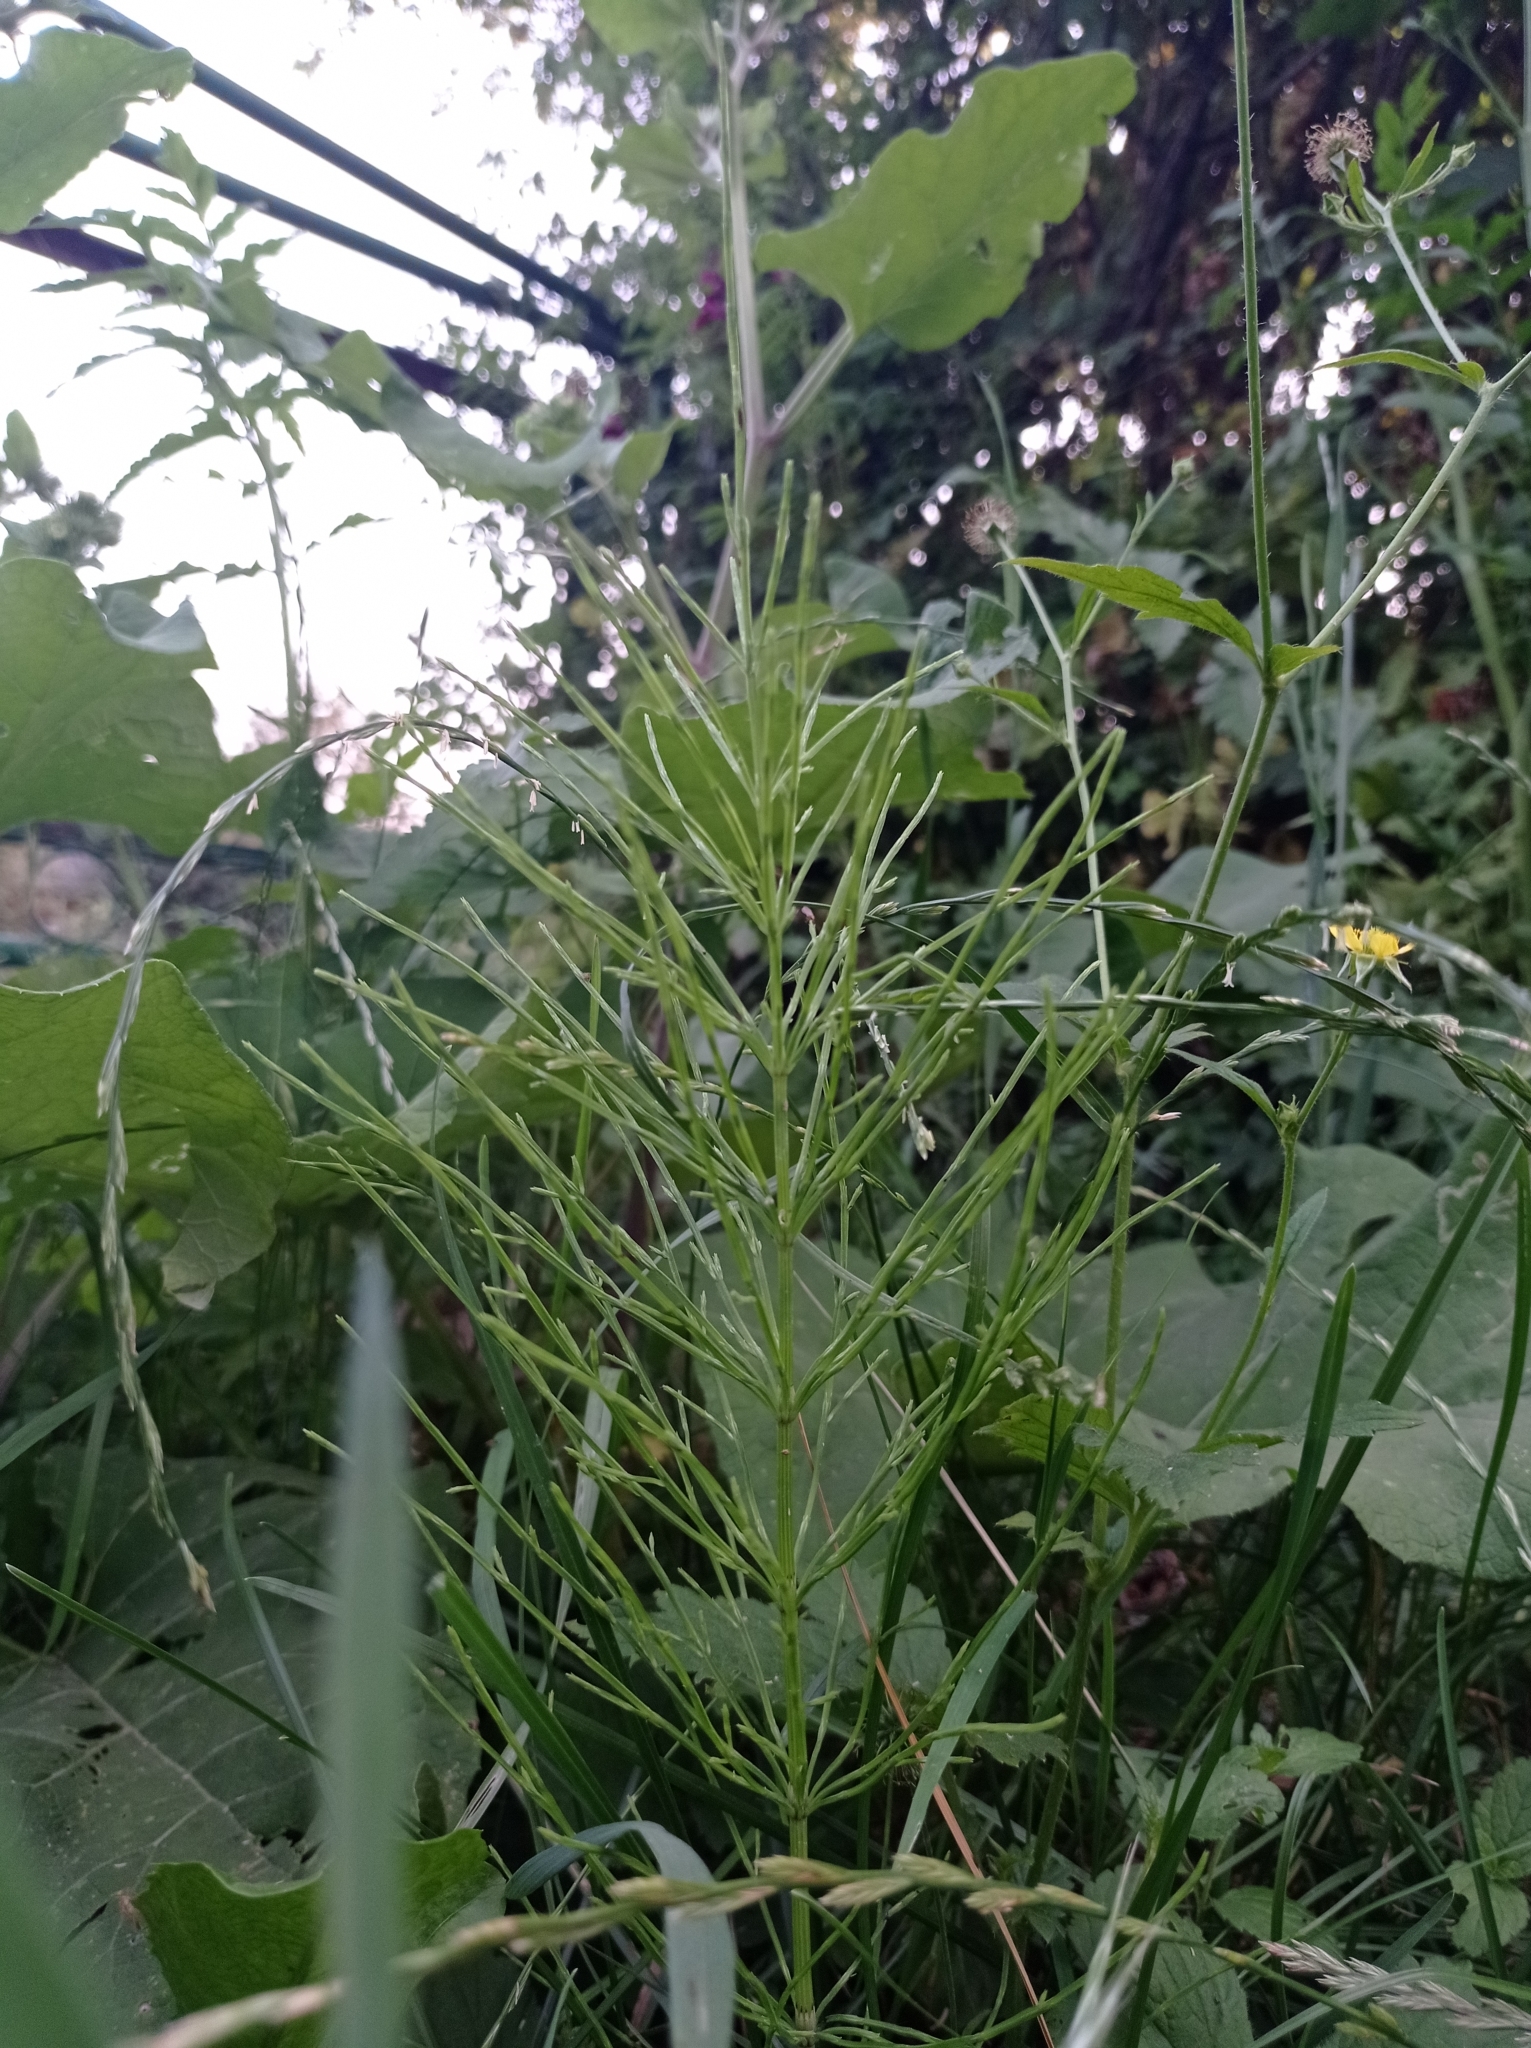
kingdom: Plantae
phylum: Tracheophyta
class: Polypodiopsida
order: Equisetales
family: Equisetaceae
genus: Equisetum
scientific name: Equisetum arvense
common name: Field horsetail
